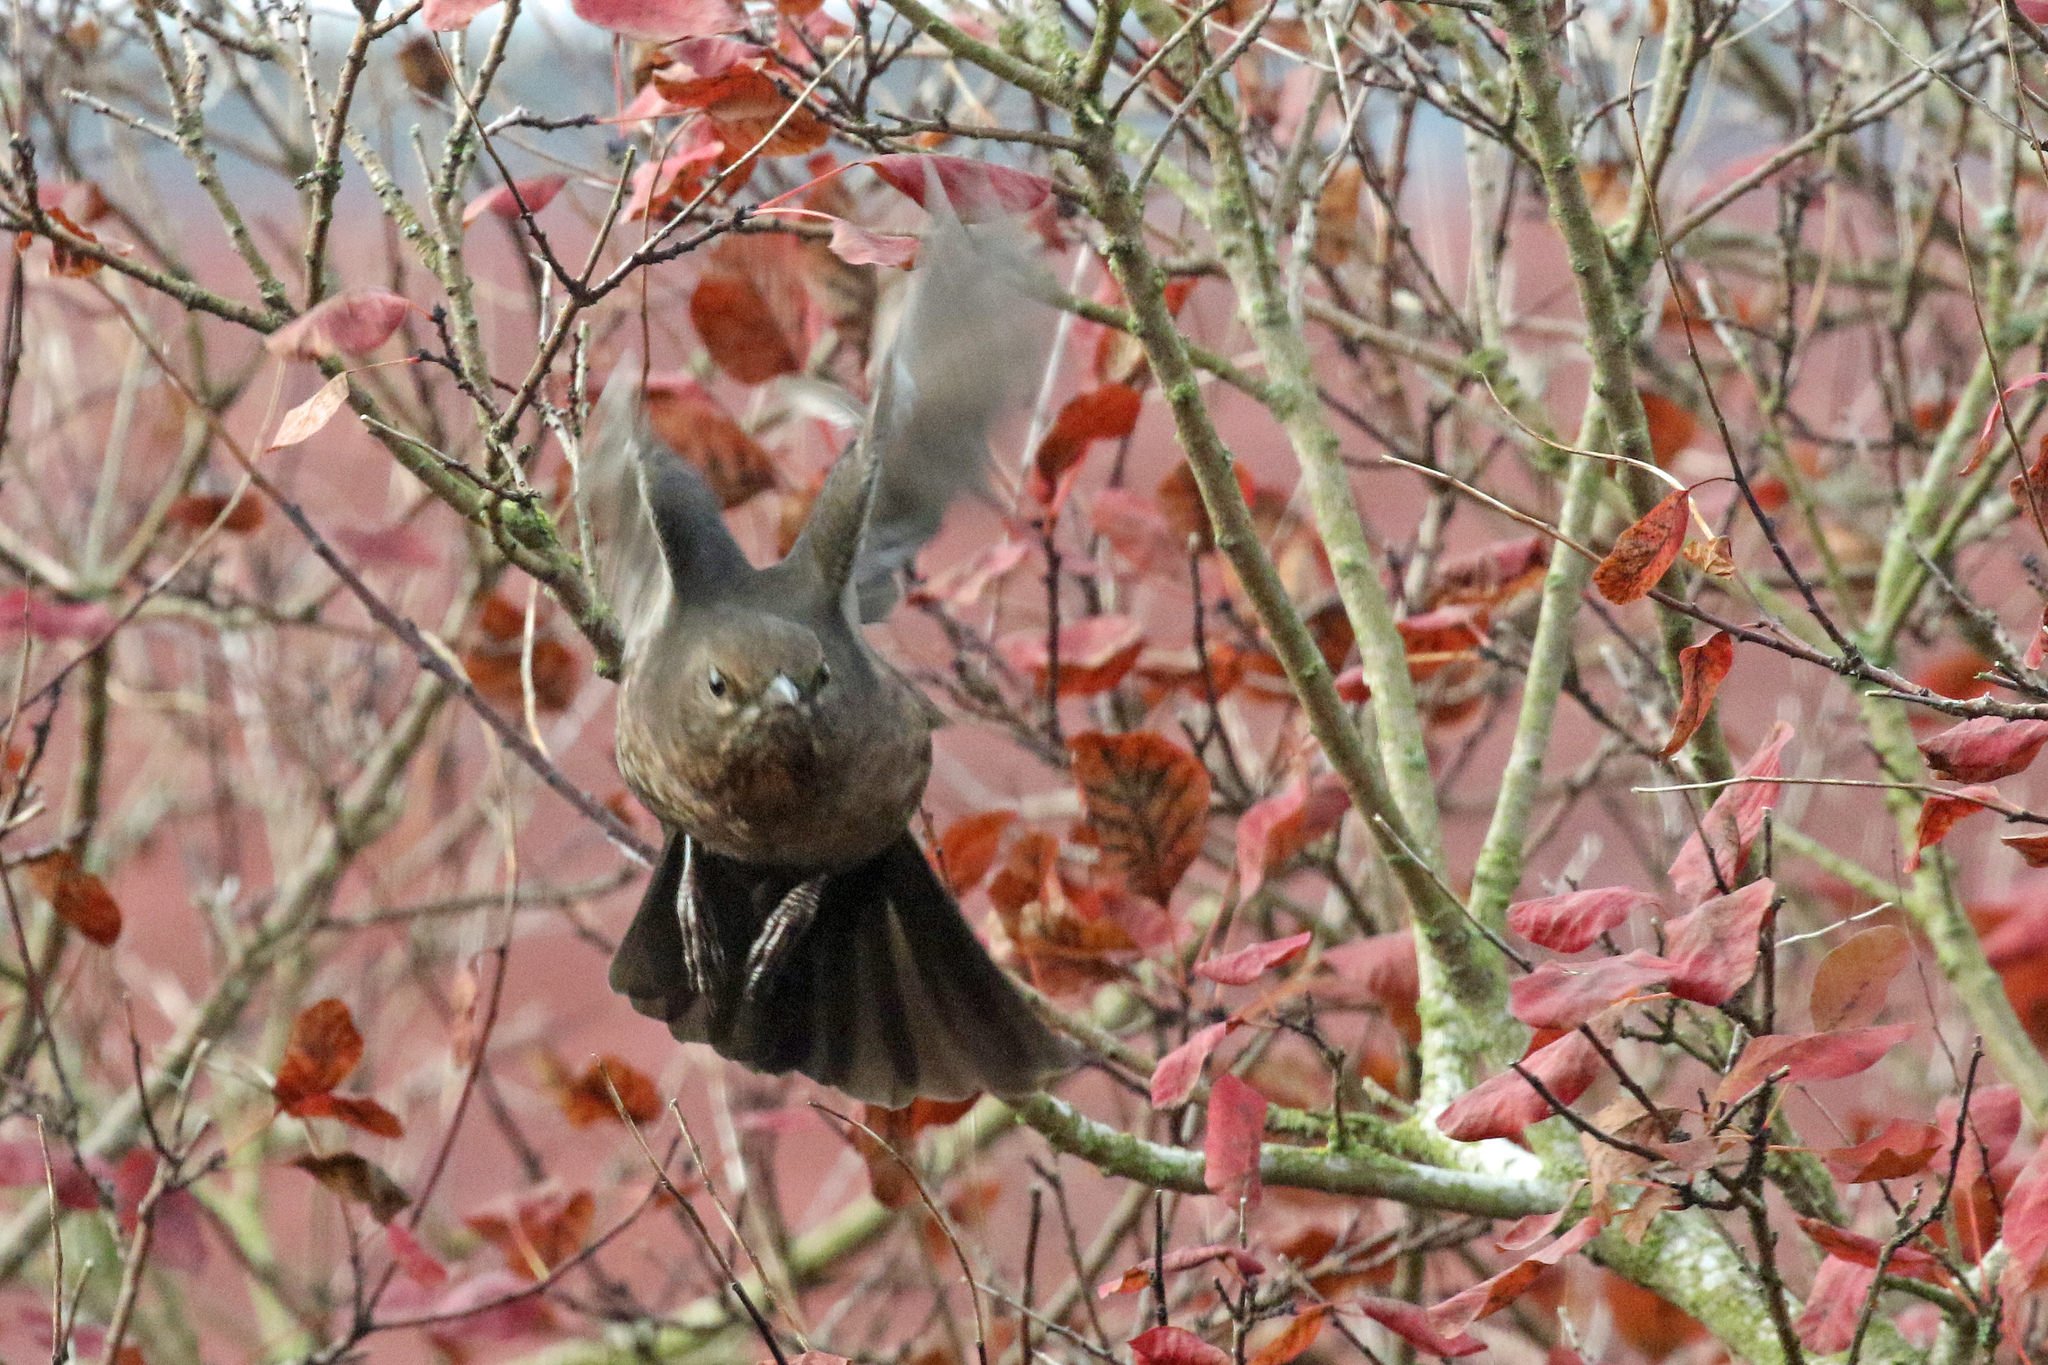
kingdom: Animalia
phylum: Chordata
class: Aves
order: Passeriformes
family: Turdidae
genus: Turdus
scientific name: Turdus merula
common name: Common blackbird
